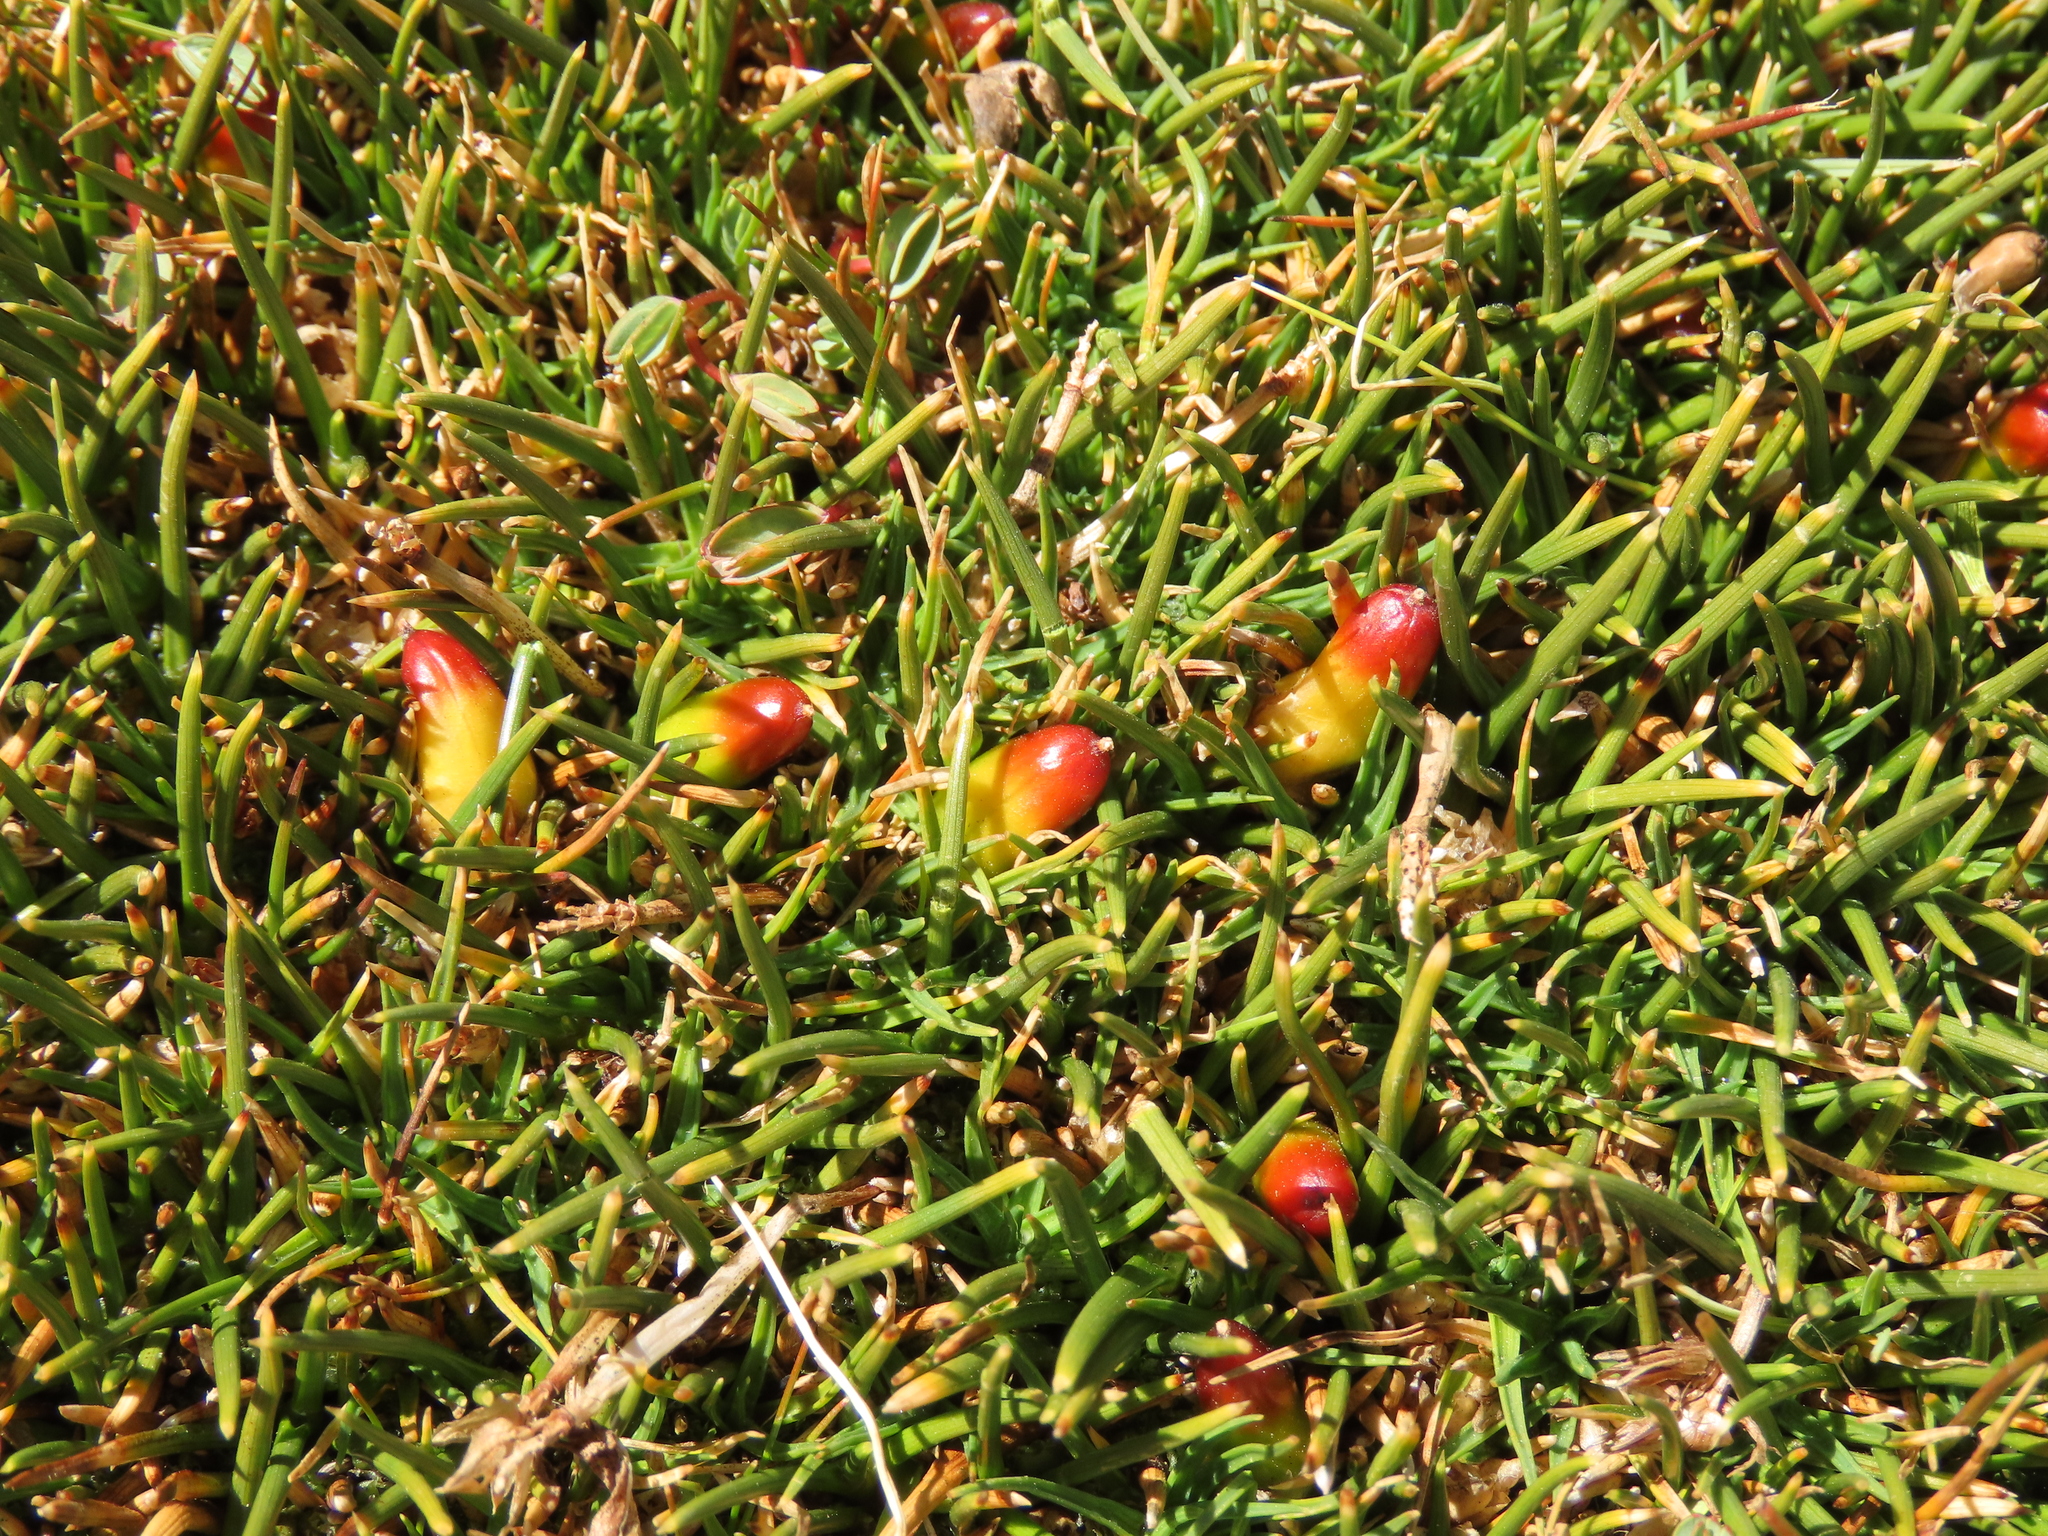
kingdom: Plantae
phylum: Tracheophyta
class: Liliopsida
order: Poales
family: Juncaceae
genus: Oxychloe
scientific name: Oxychloe andina
